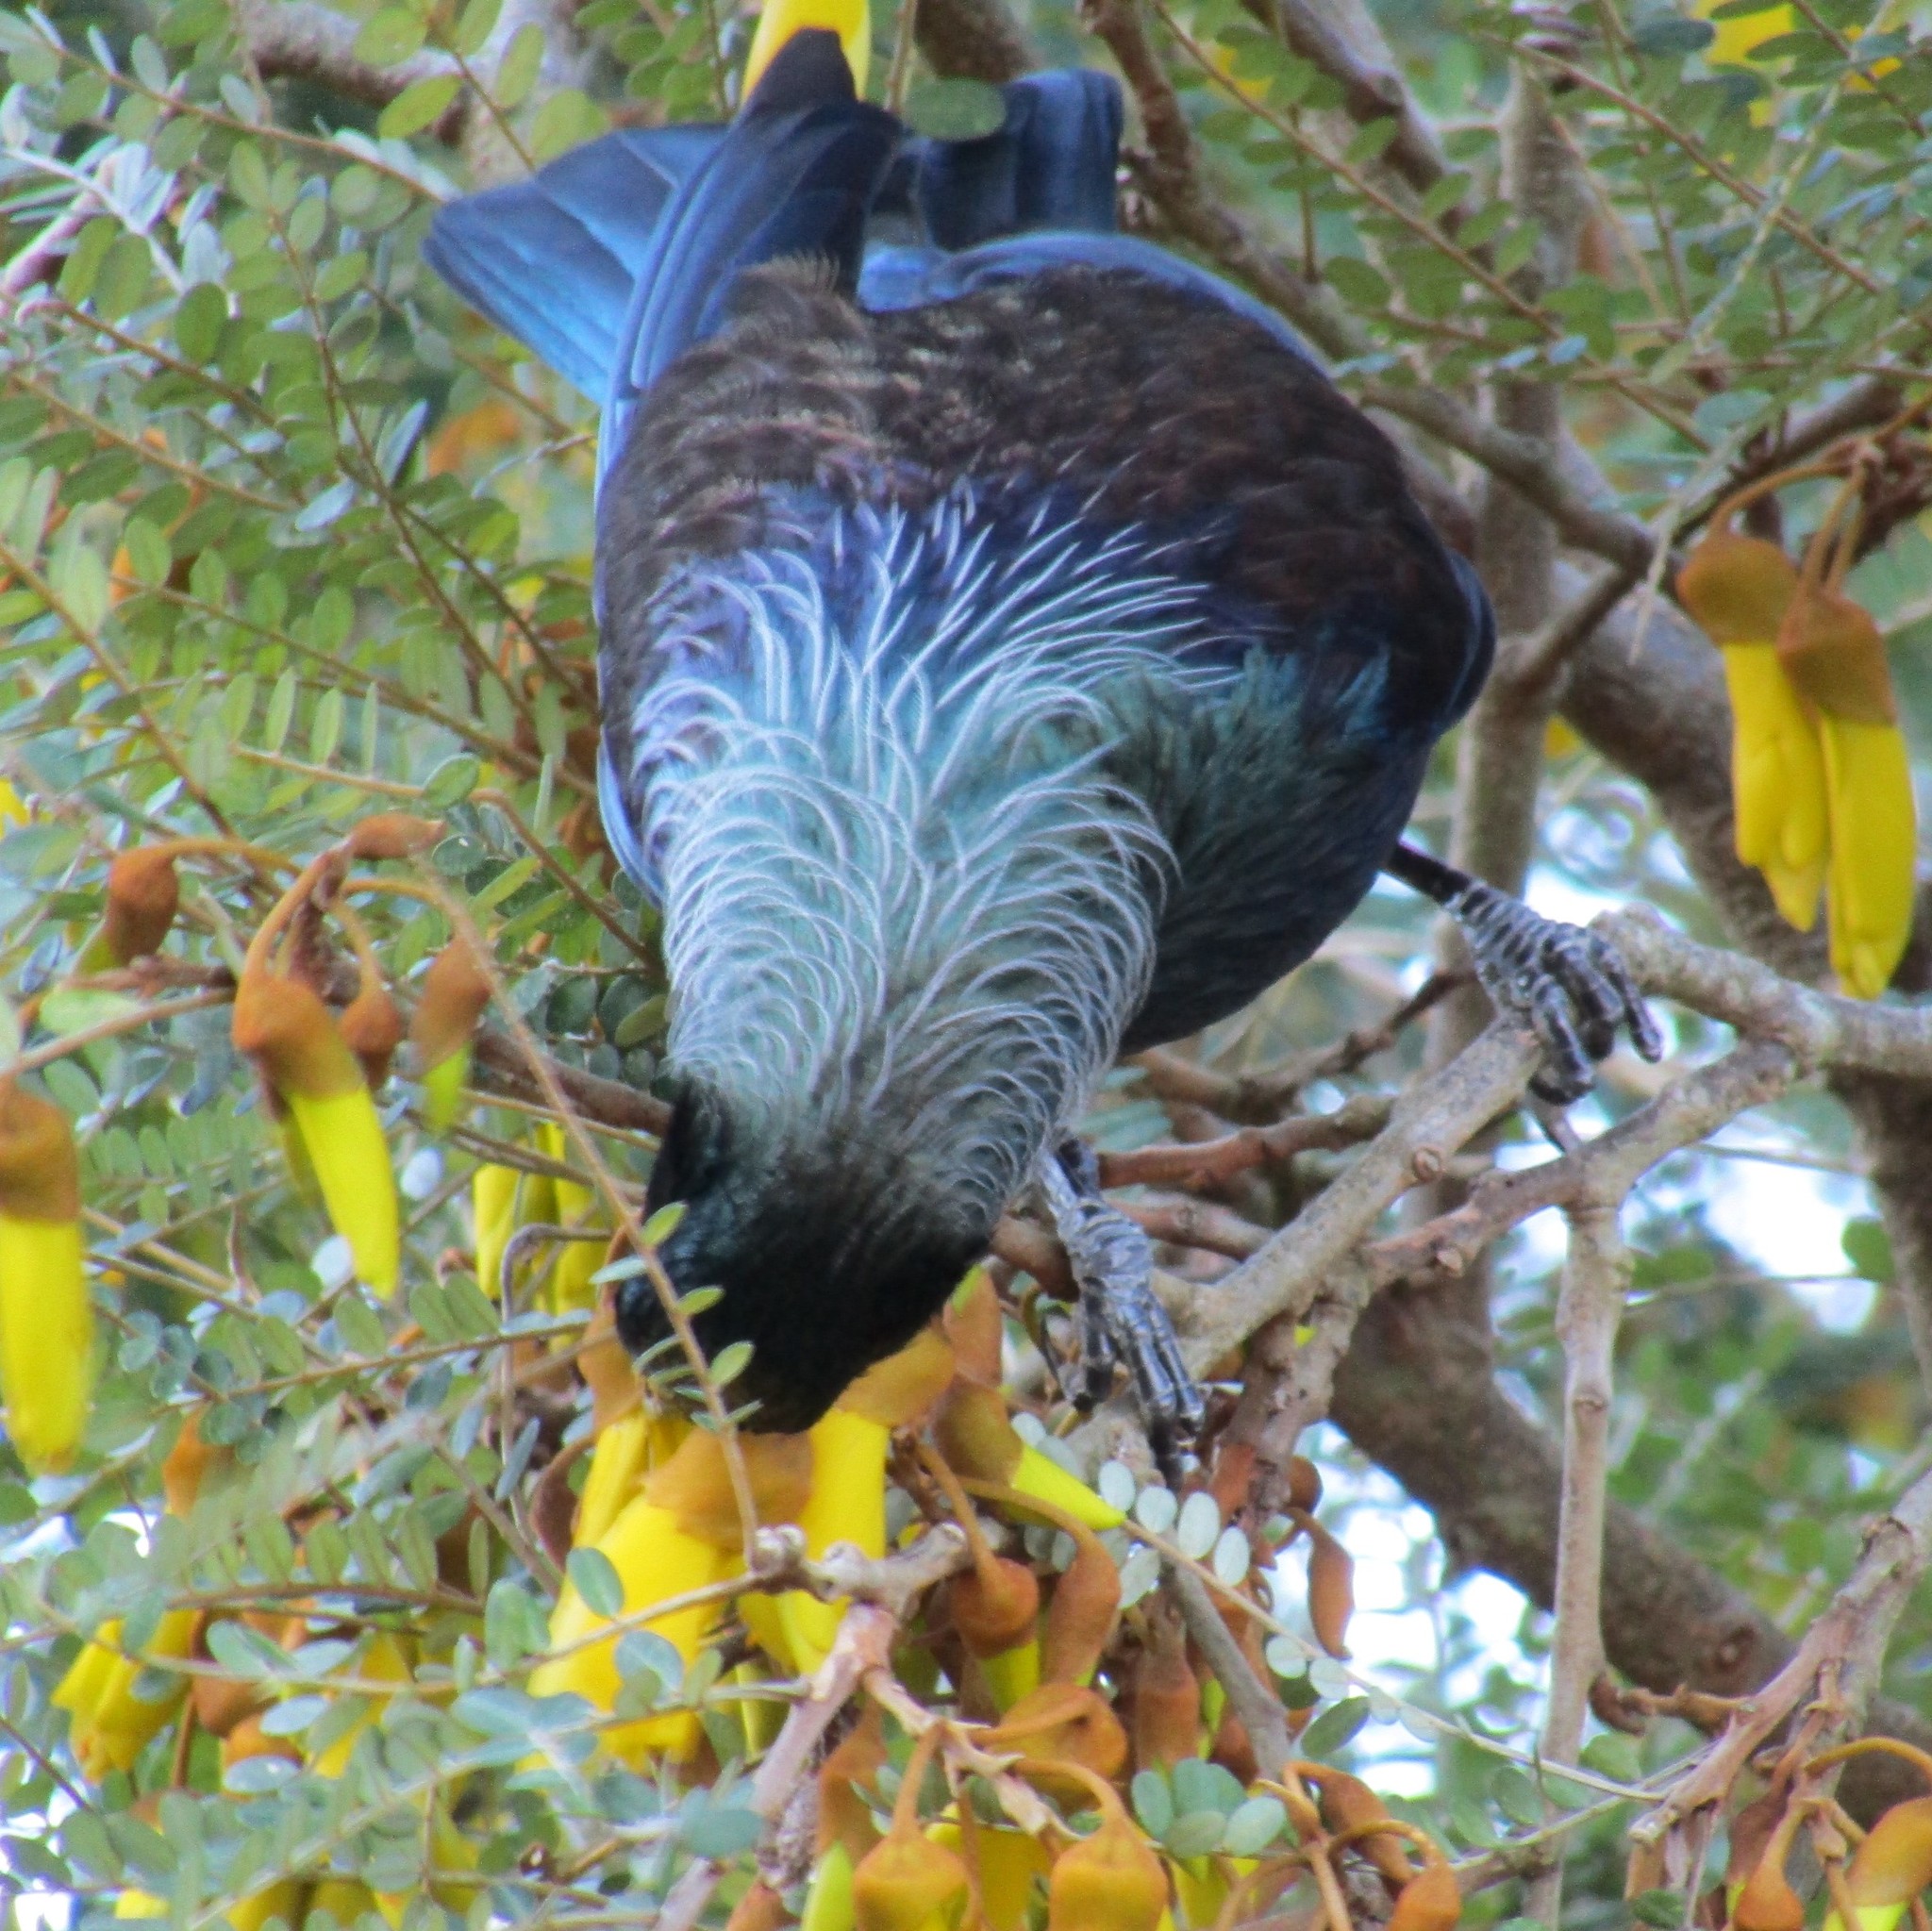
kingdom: Animalia
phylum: Chordata
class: Aves
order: Passeriformes
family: Meliphagidae
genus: Prosthemadera
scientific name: Prosthemadera novaeseelandiae
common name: Tui
